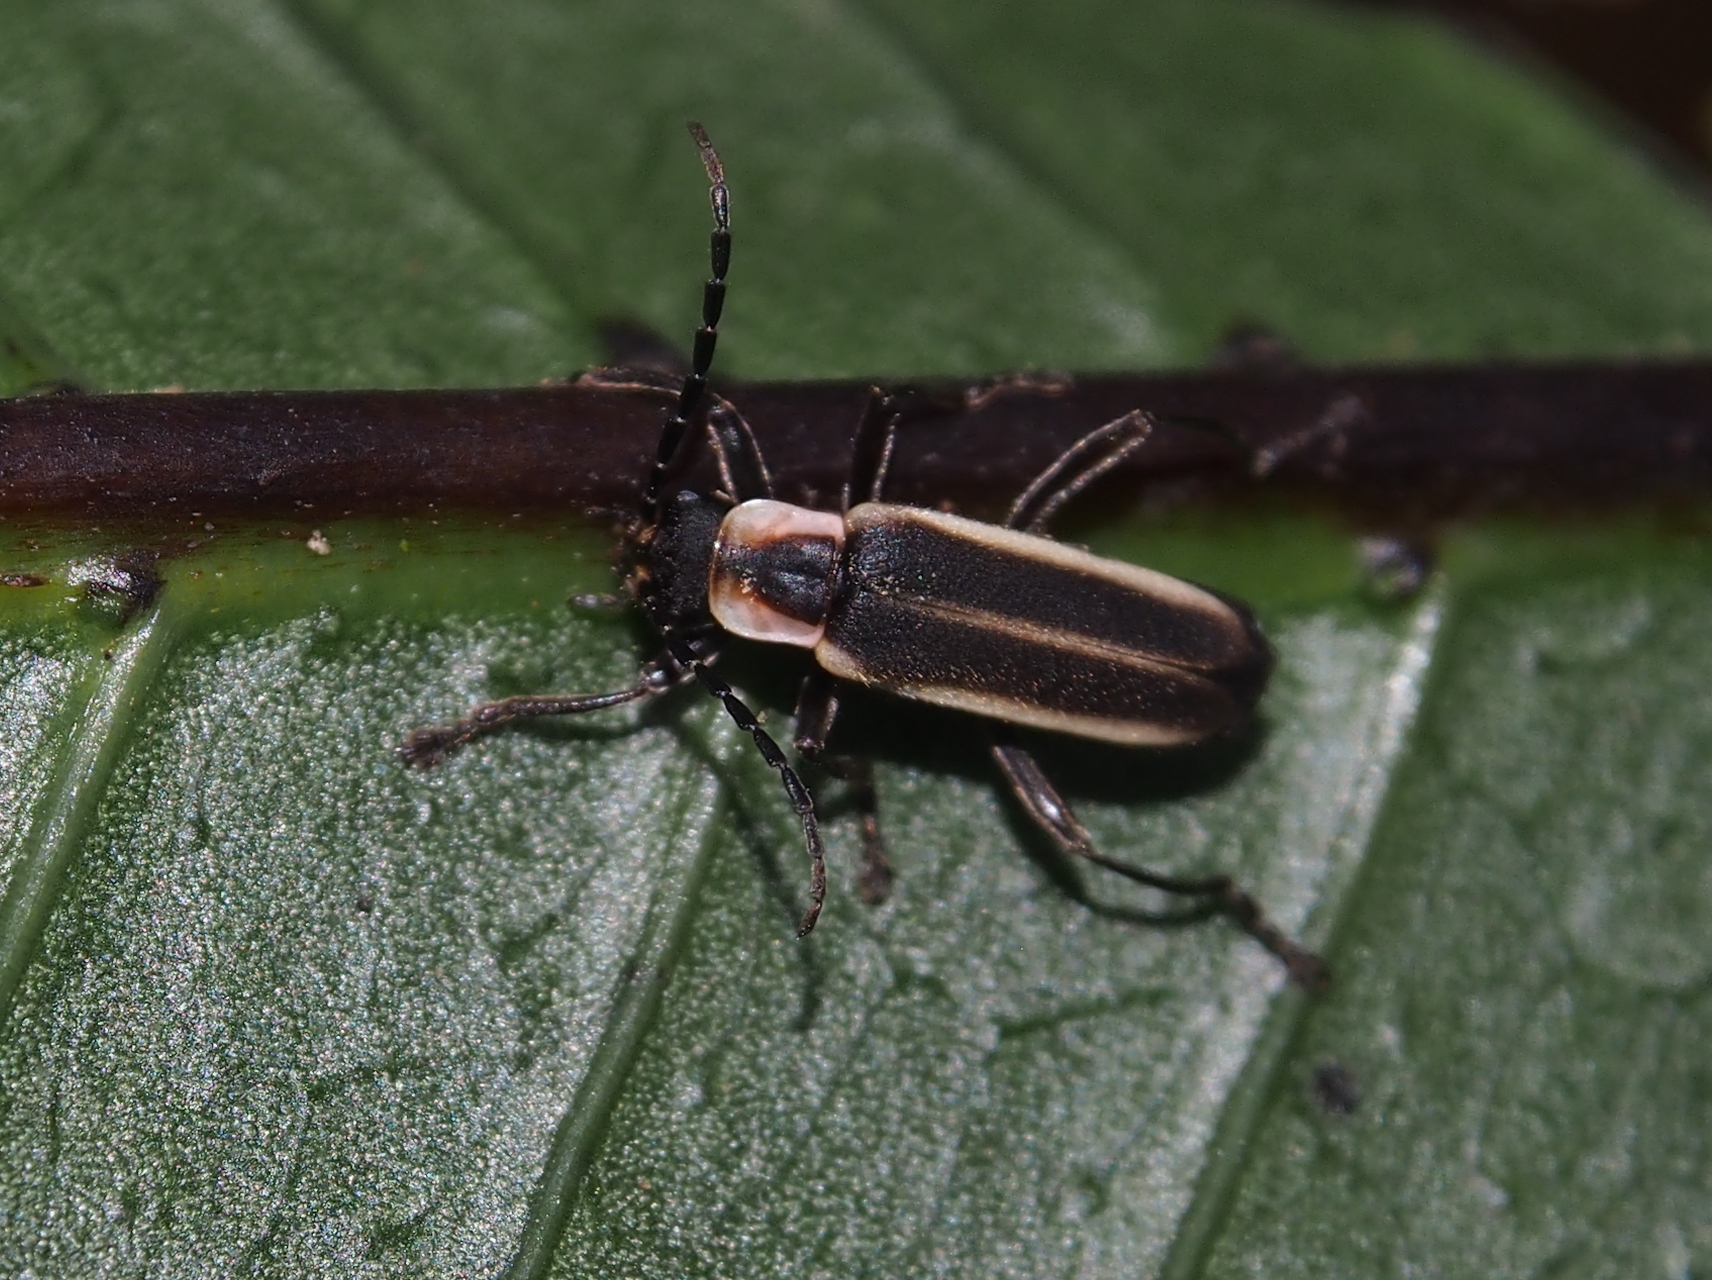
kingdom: Animalia
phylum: Arthropoda
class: Insecta
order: Coleoptera
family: Cantharidae
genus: Chauliognathus
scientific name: Chauliognathus
